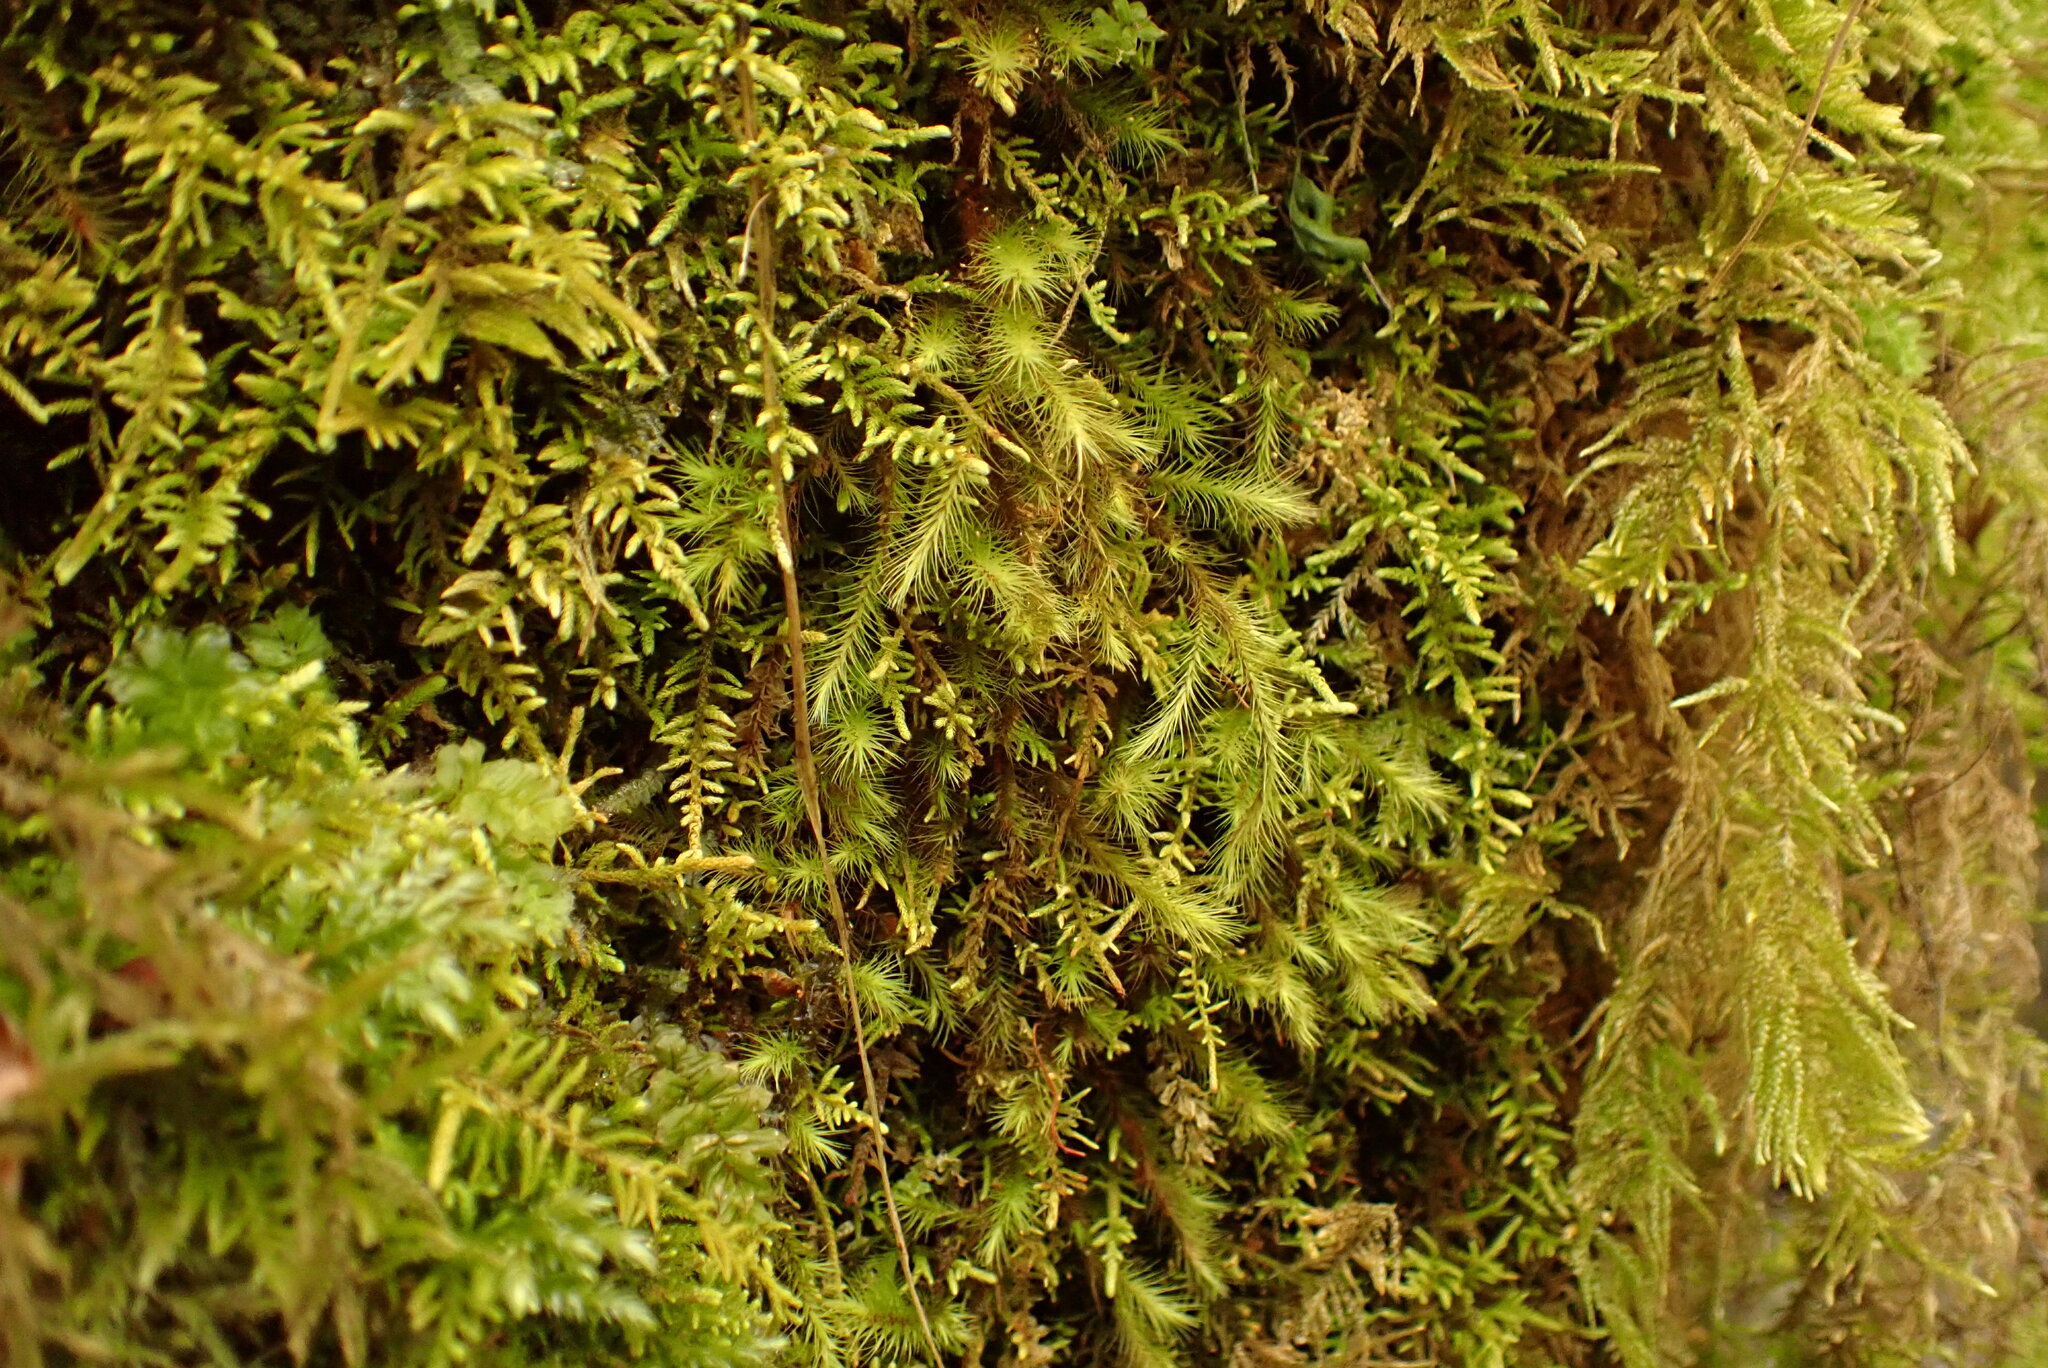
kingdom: Plantae
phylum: Bryophyta
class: Bryopsida
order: Bartramiales
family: Bartramiaceae
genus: Anacolia
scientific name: Anacolia menziesii
